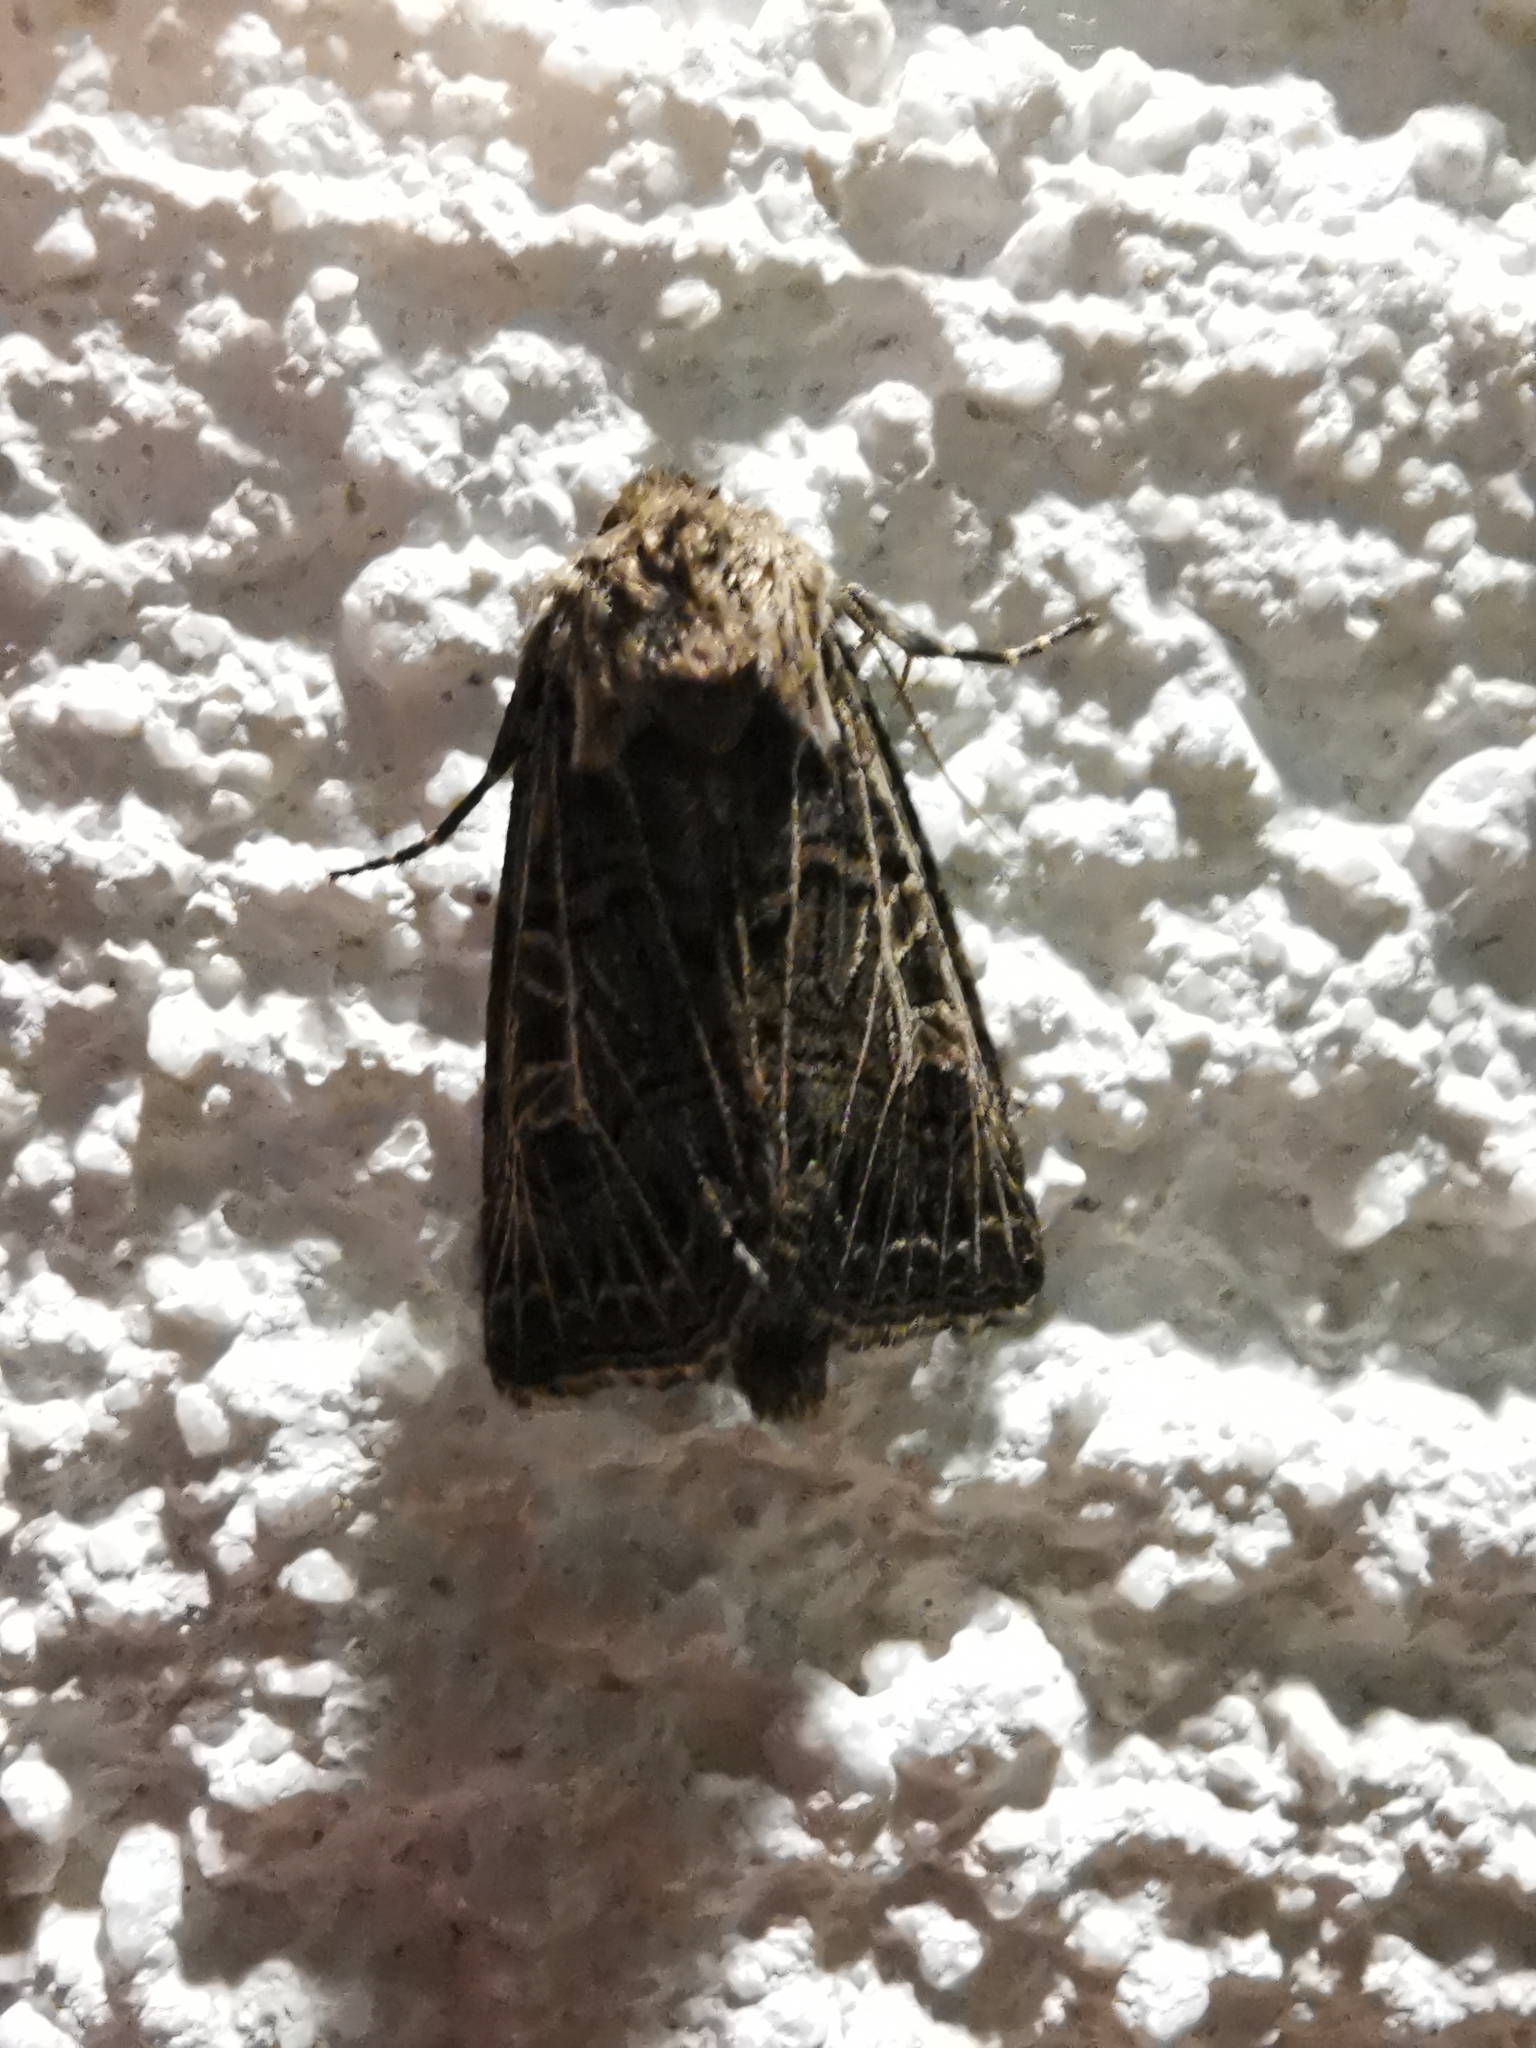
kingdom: Animalia
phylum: Arthropoda
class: Insecta
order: Lepidoptera
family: Noctuidae
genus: Tholera
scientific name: Tholera decimalis
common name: Feathered gothic
